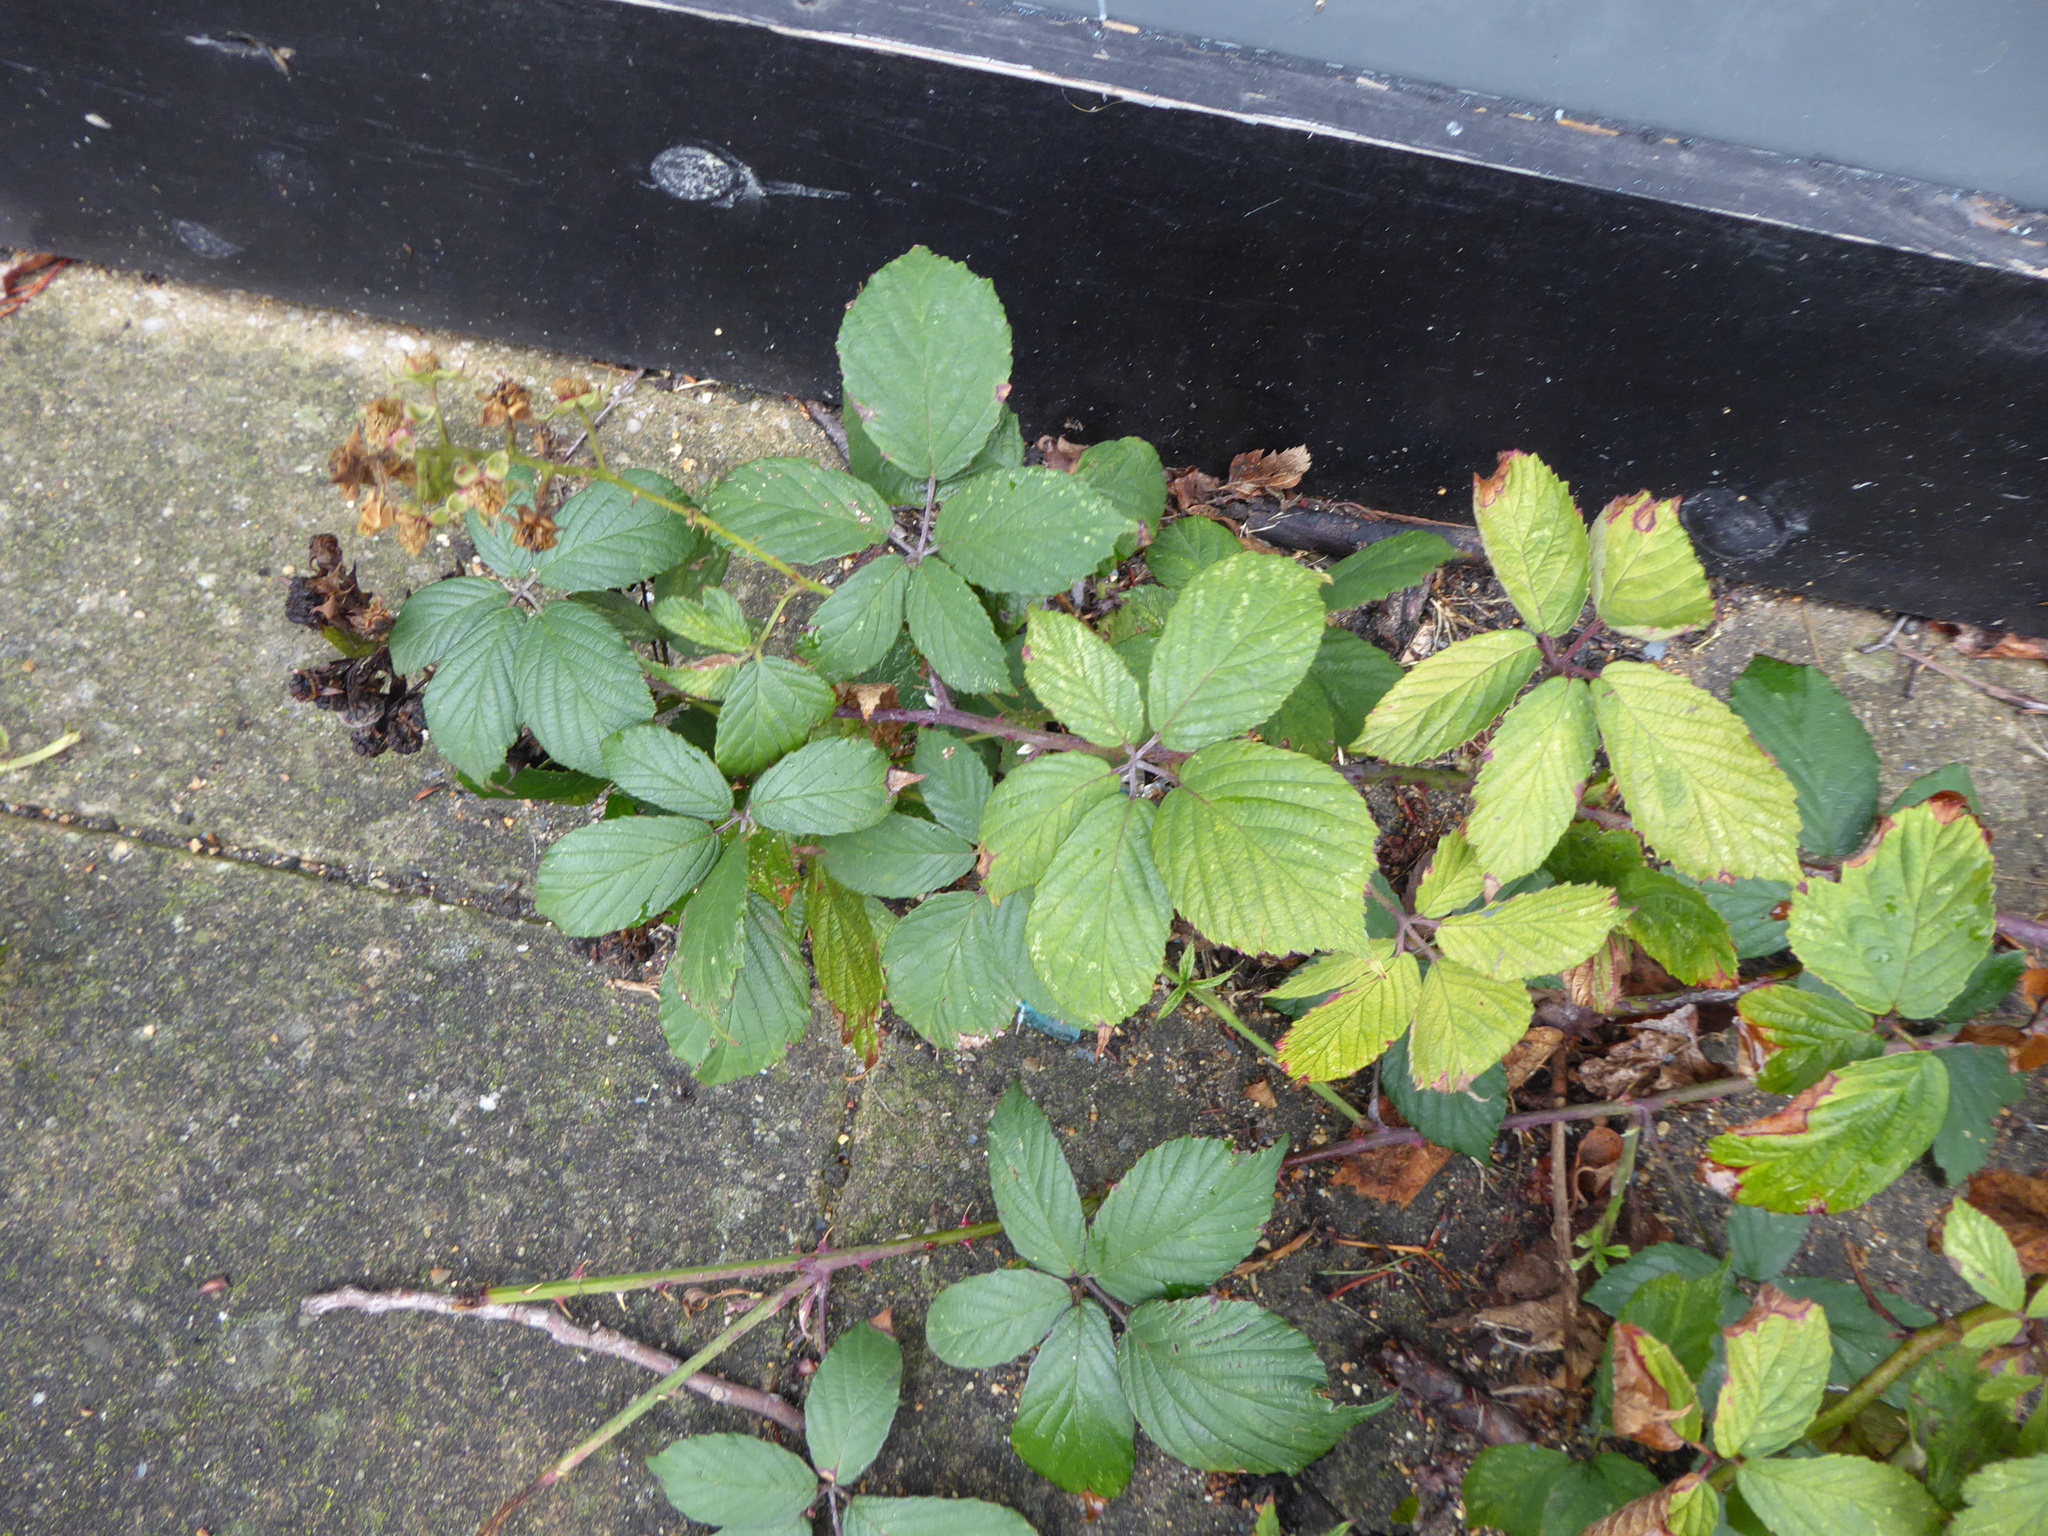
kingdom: Plantae
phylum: Tracheophyta
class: Magnoliopsida
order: Rosales
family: Rosaceae
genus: Rubus
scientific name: Rubus
